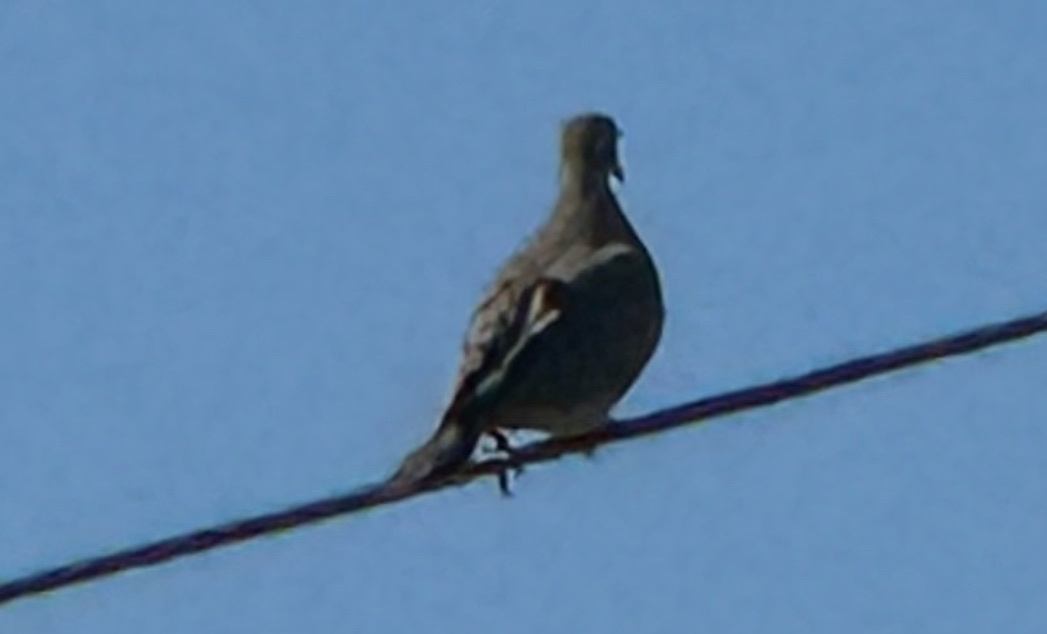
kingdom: Animalia
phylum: Chordata
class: Aves
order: Columbiformes
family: Columbidae
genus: Zenaida
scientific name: Zenaida macroura
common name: Mourning dove
